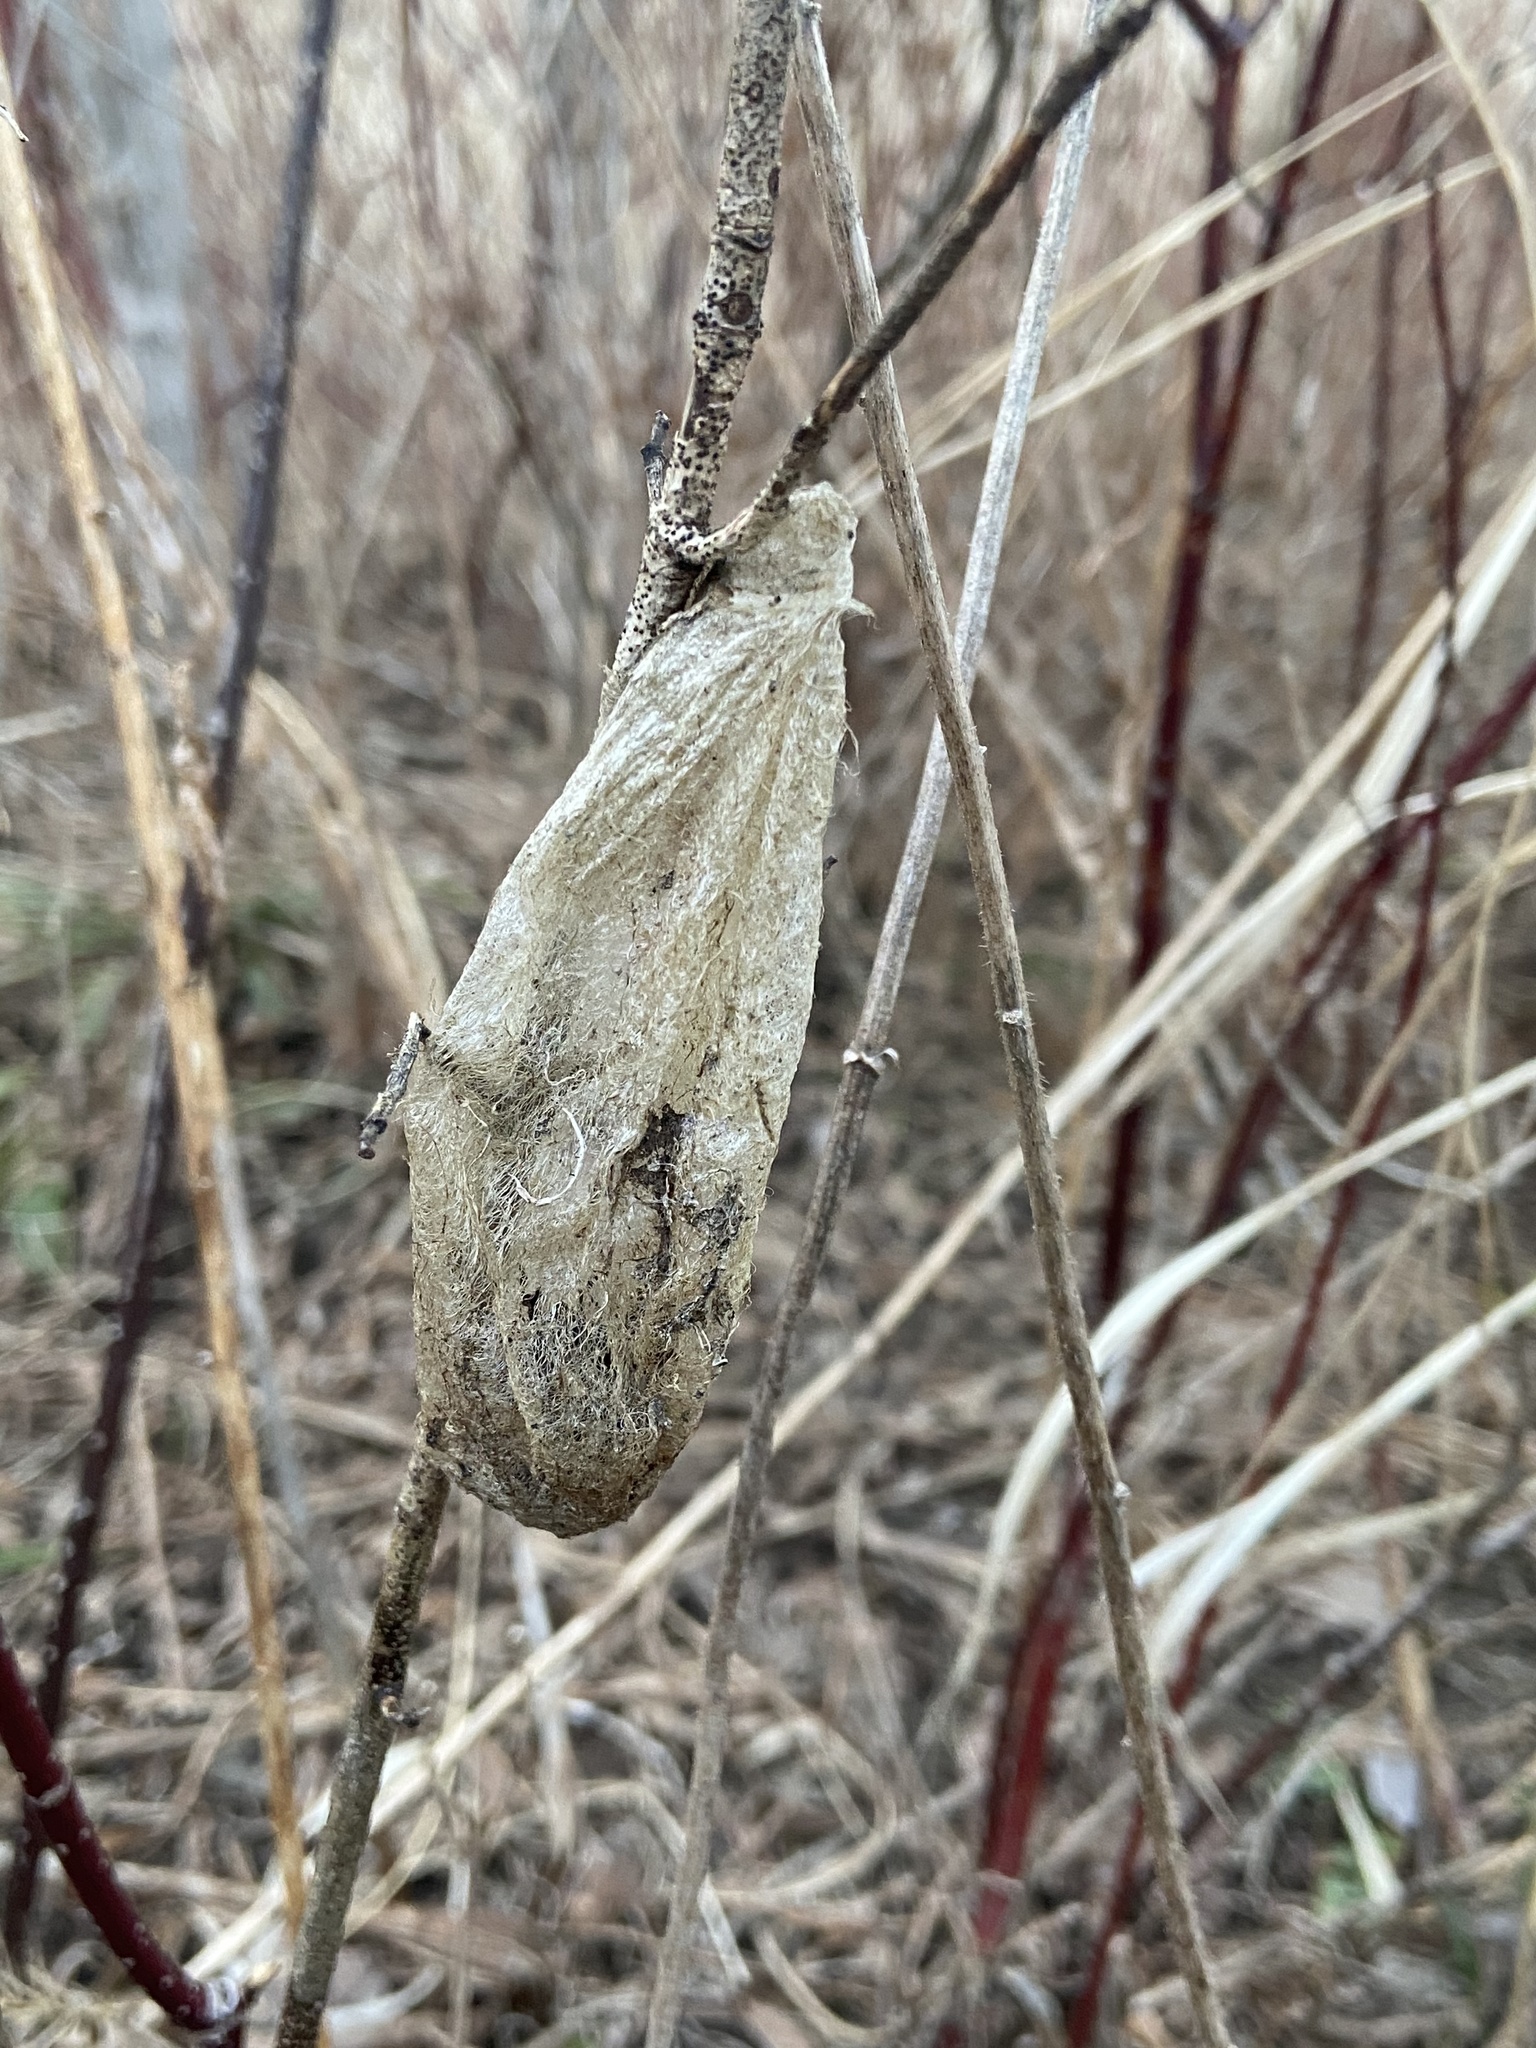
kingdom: Animalia
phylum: Arthropoda
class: Insecta
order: Lepidoptera
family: Saturniidae
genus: Hyalophora
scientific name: Hyalophora cecropia
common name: Cecropia silkmoth
